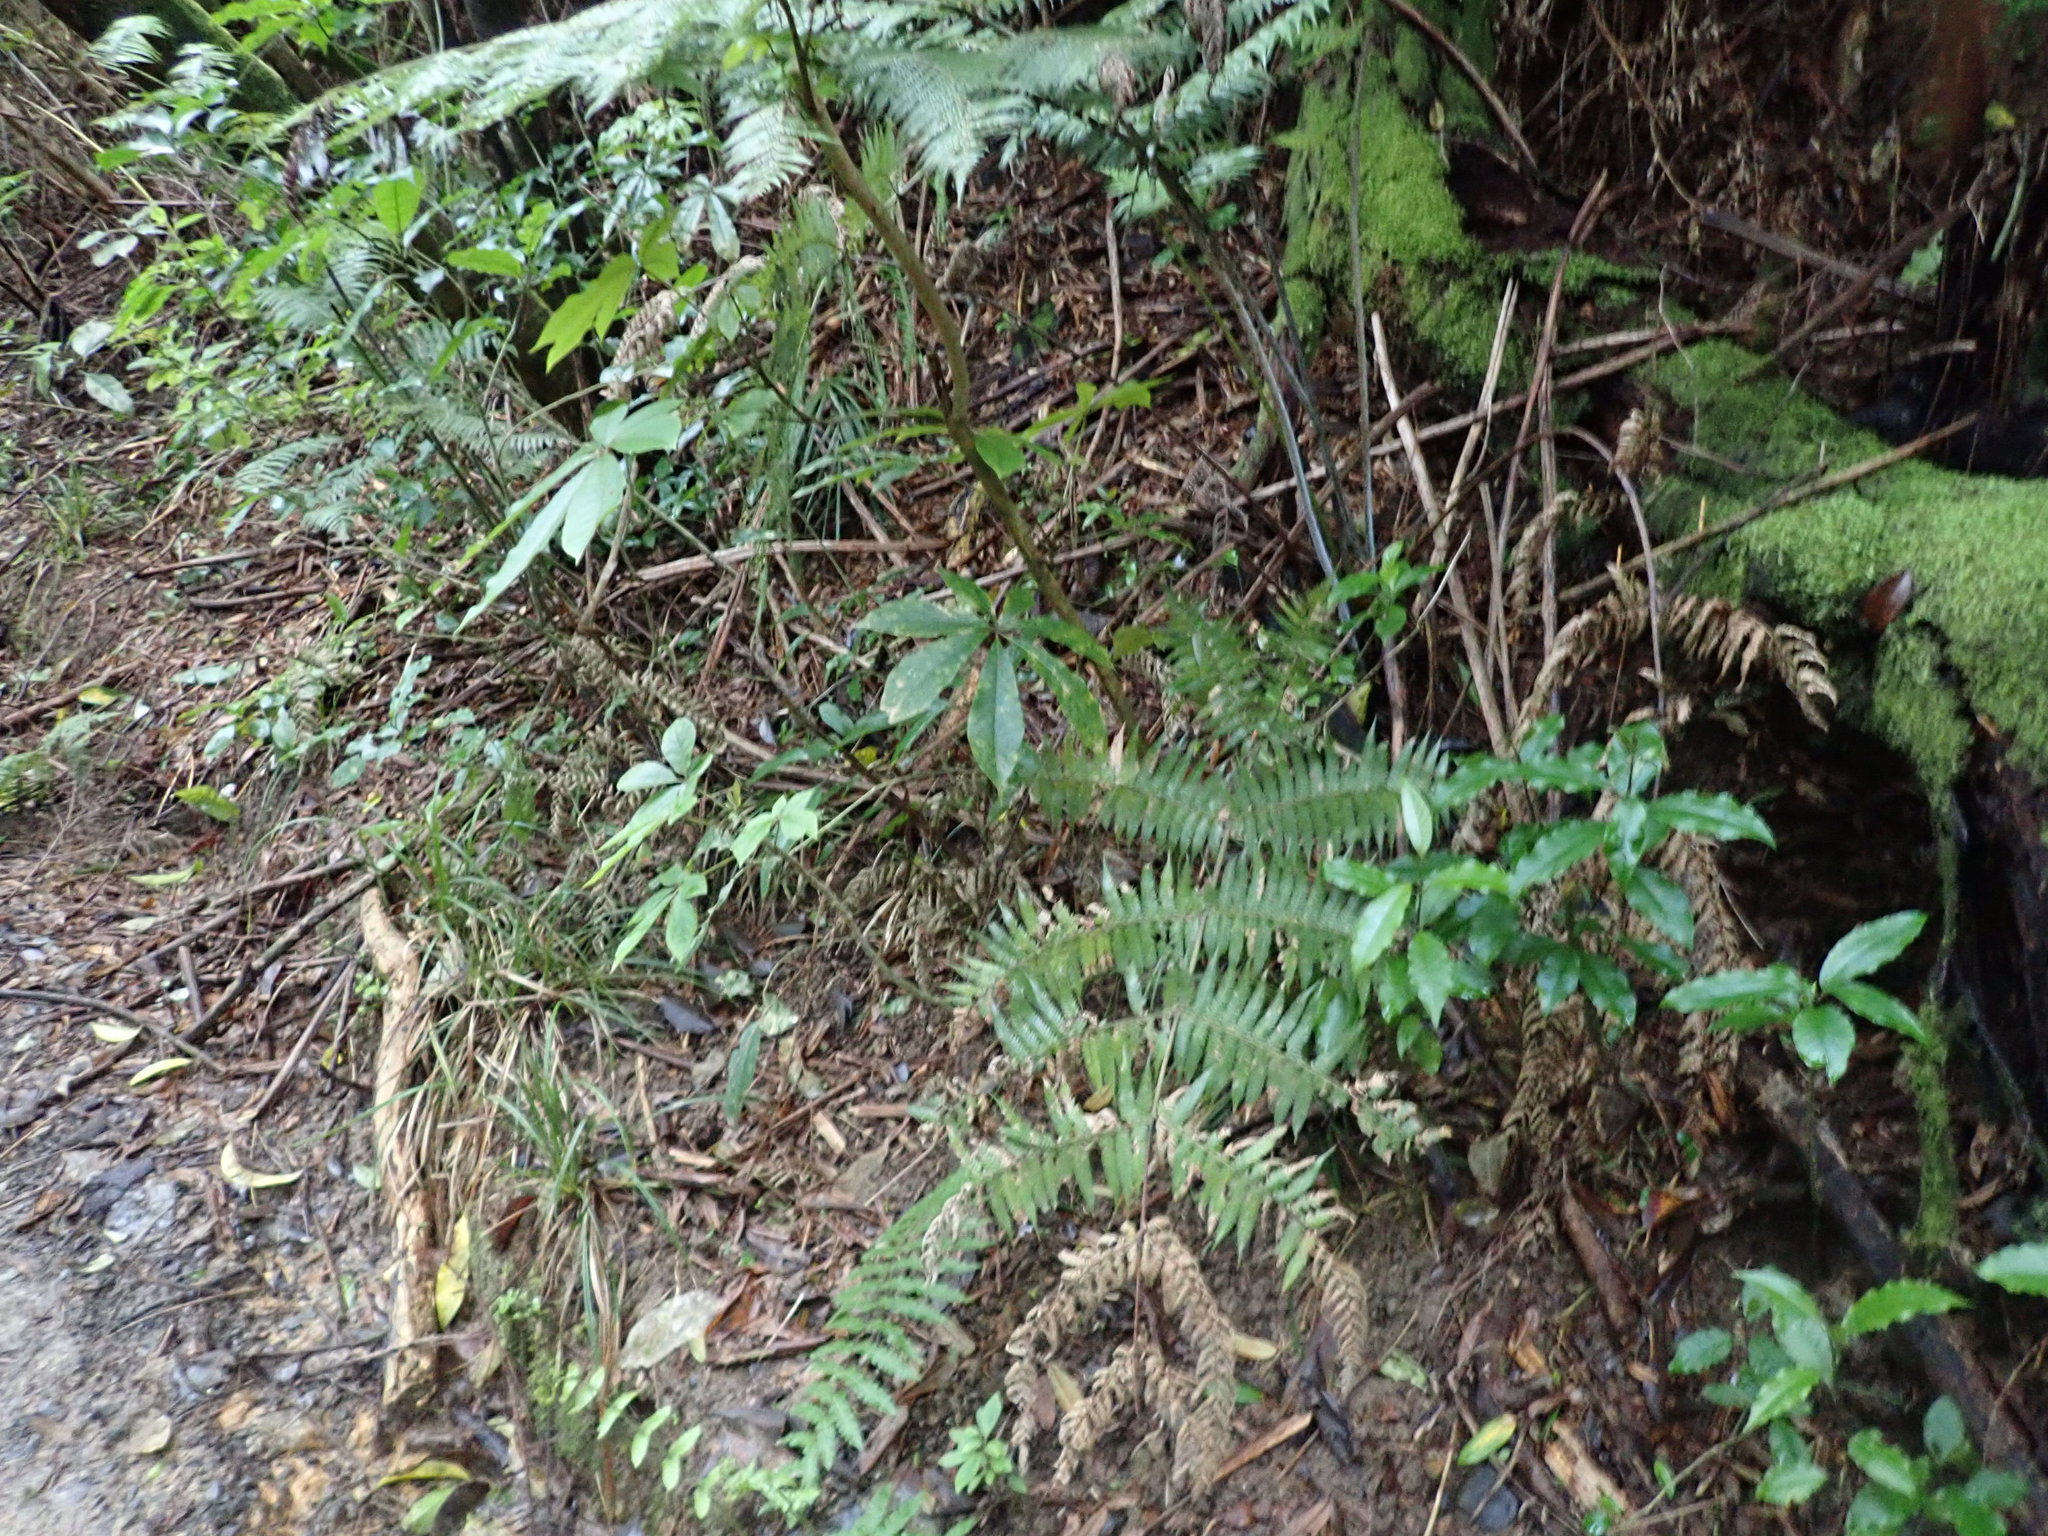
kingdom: Plantae
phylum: Tracheophyta
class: Magnoliopsida
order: Apiales
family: Araliaceae
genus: Schefflera
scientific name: Schefflera digitata
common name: Pate
